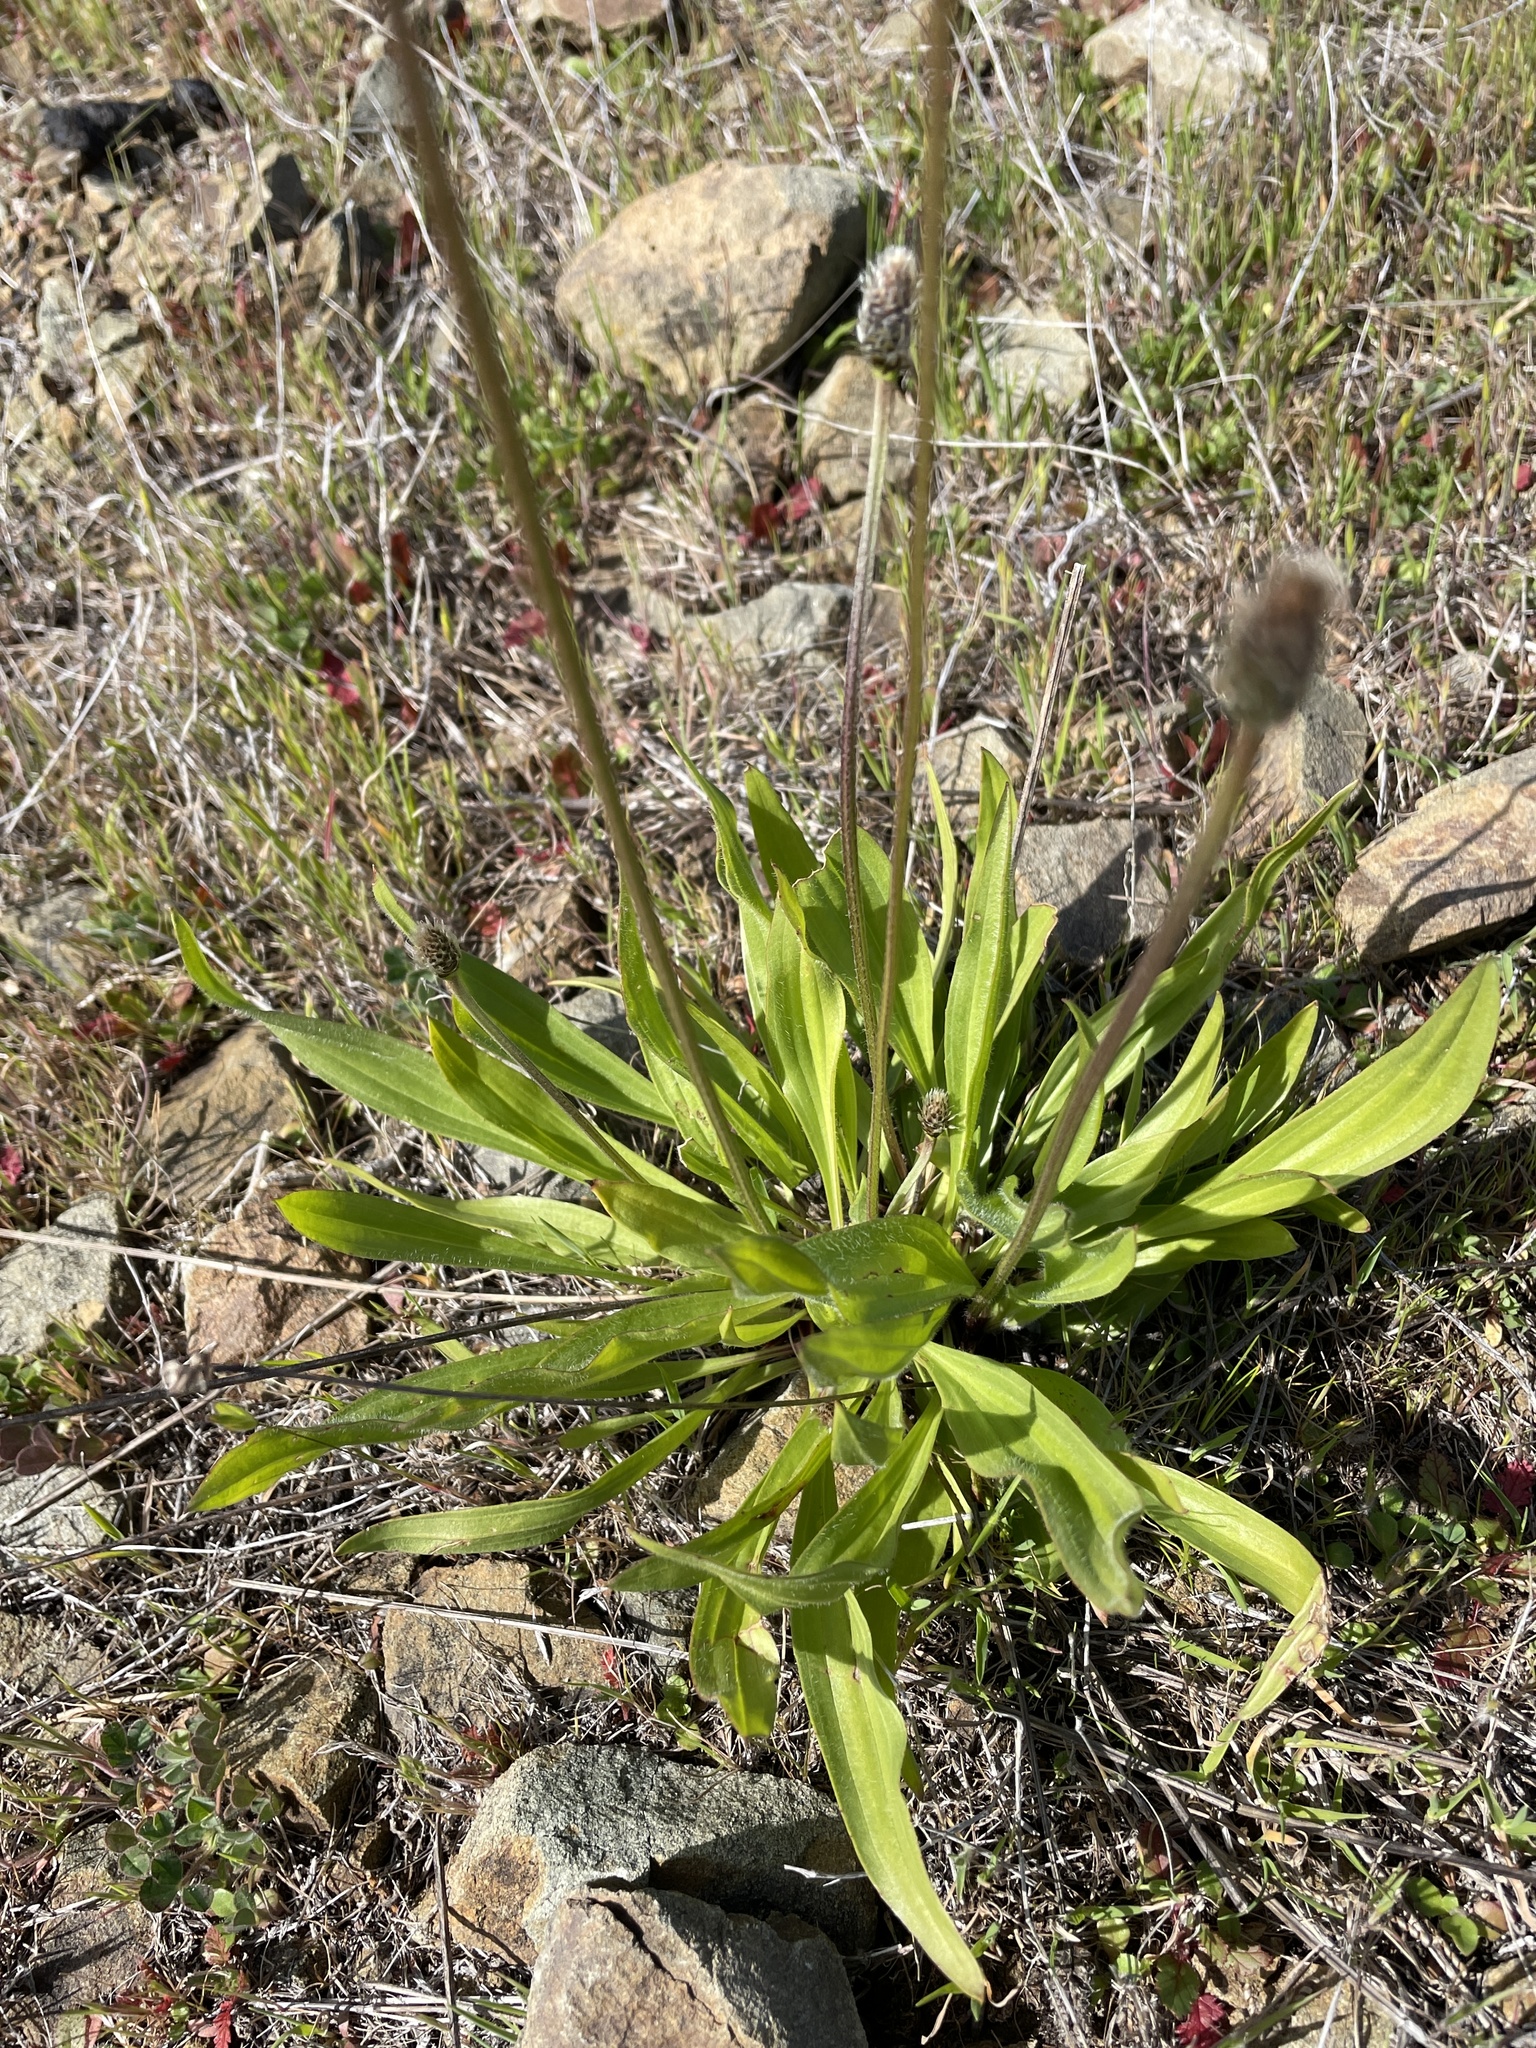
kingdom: Plantae
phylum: Tracheophyta
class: Magnoliopsida
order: Lamiales
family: Plantaginaceae
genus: Plantago
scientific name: Plantago lanceolata
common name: Ribwort plantain
